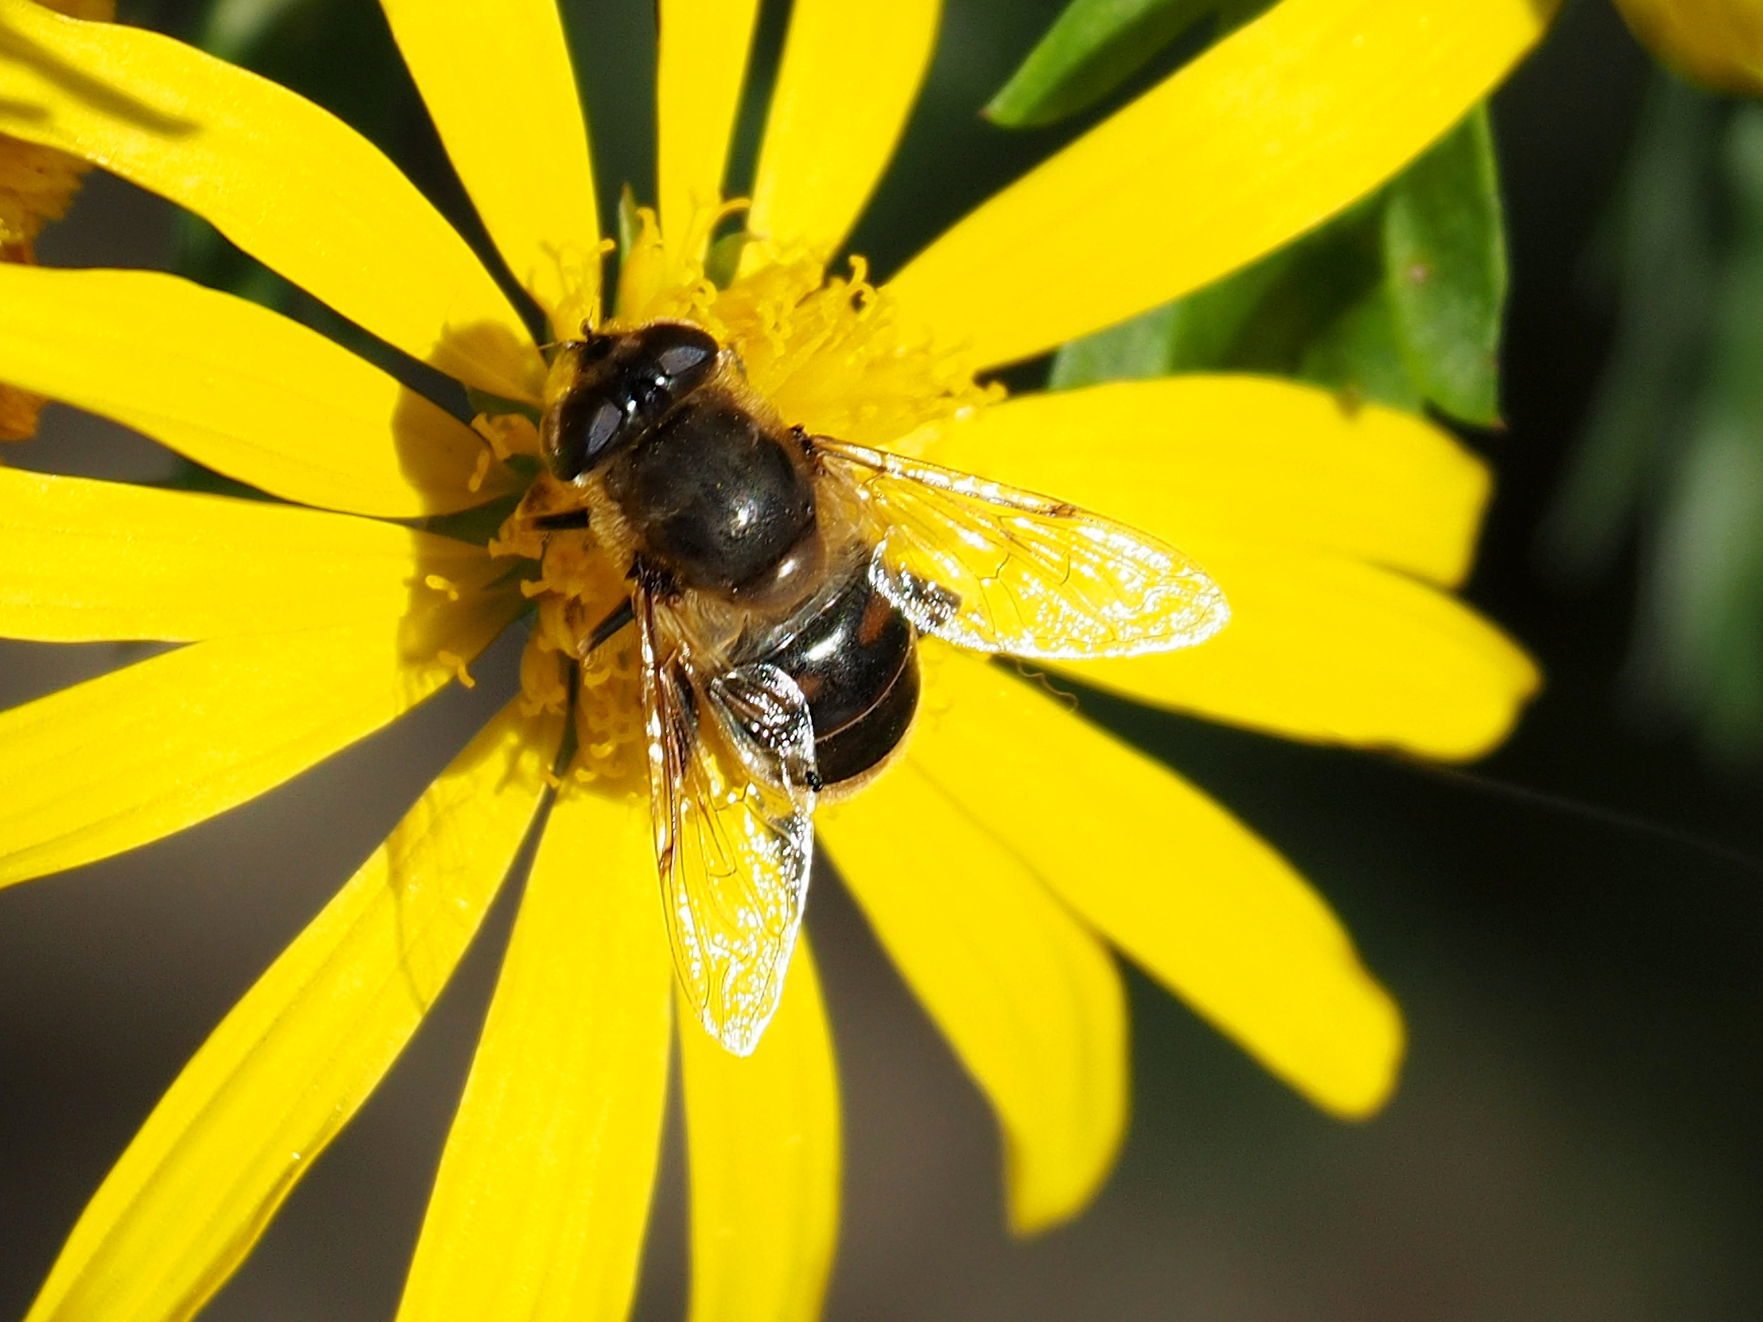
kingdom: Animalia
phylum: Arthropoda
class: Insecta
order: Diptera
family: Syrphidae
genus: Eristalis
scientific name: Eristalis tenax
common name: Drone fly
